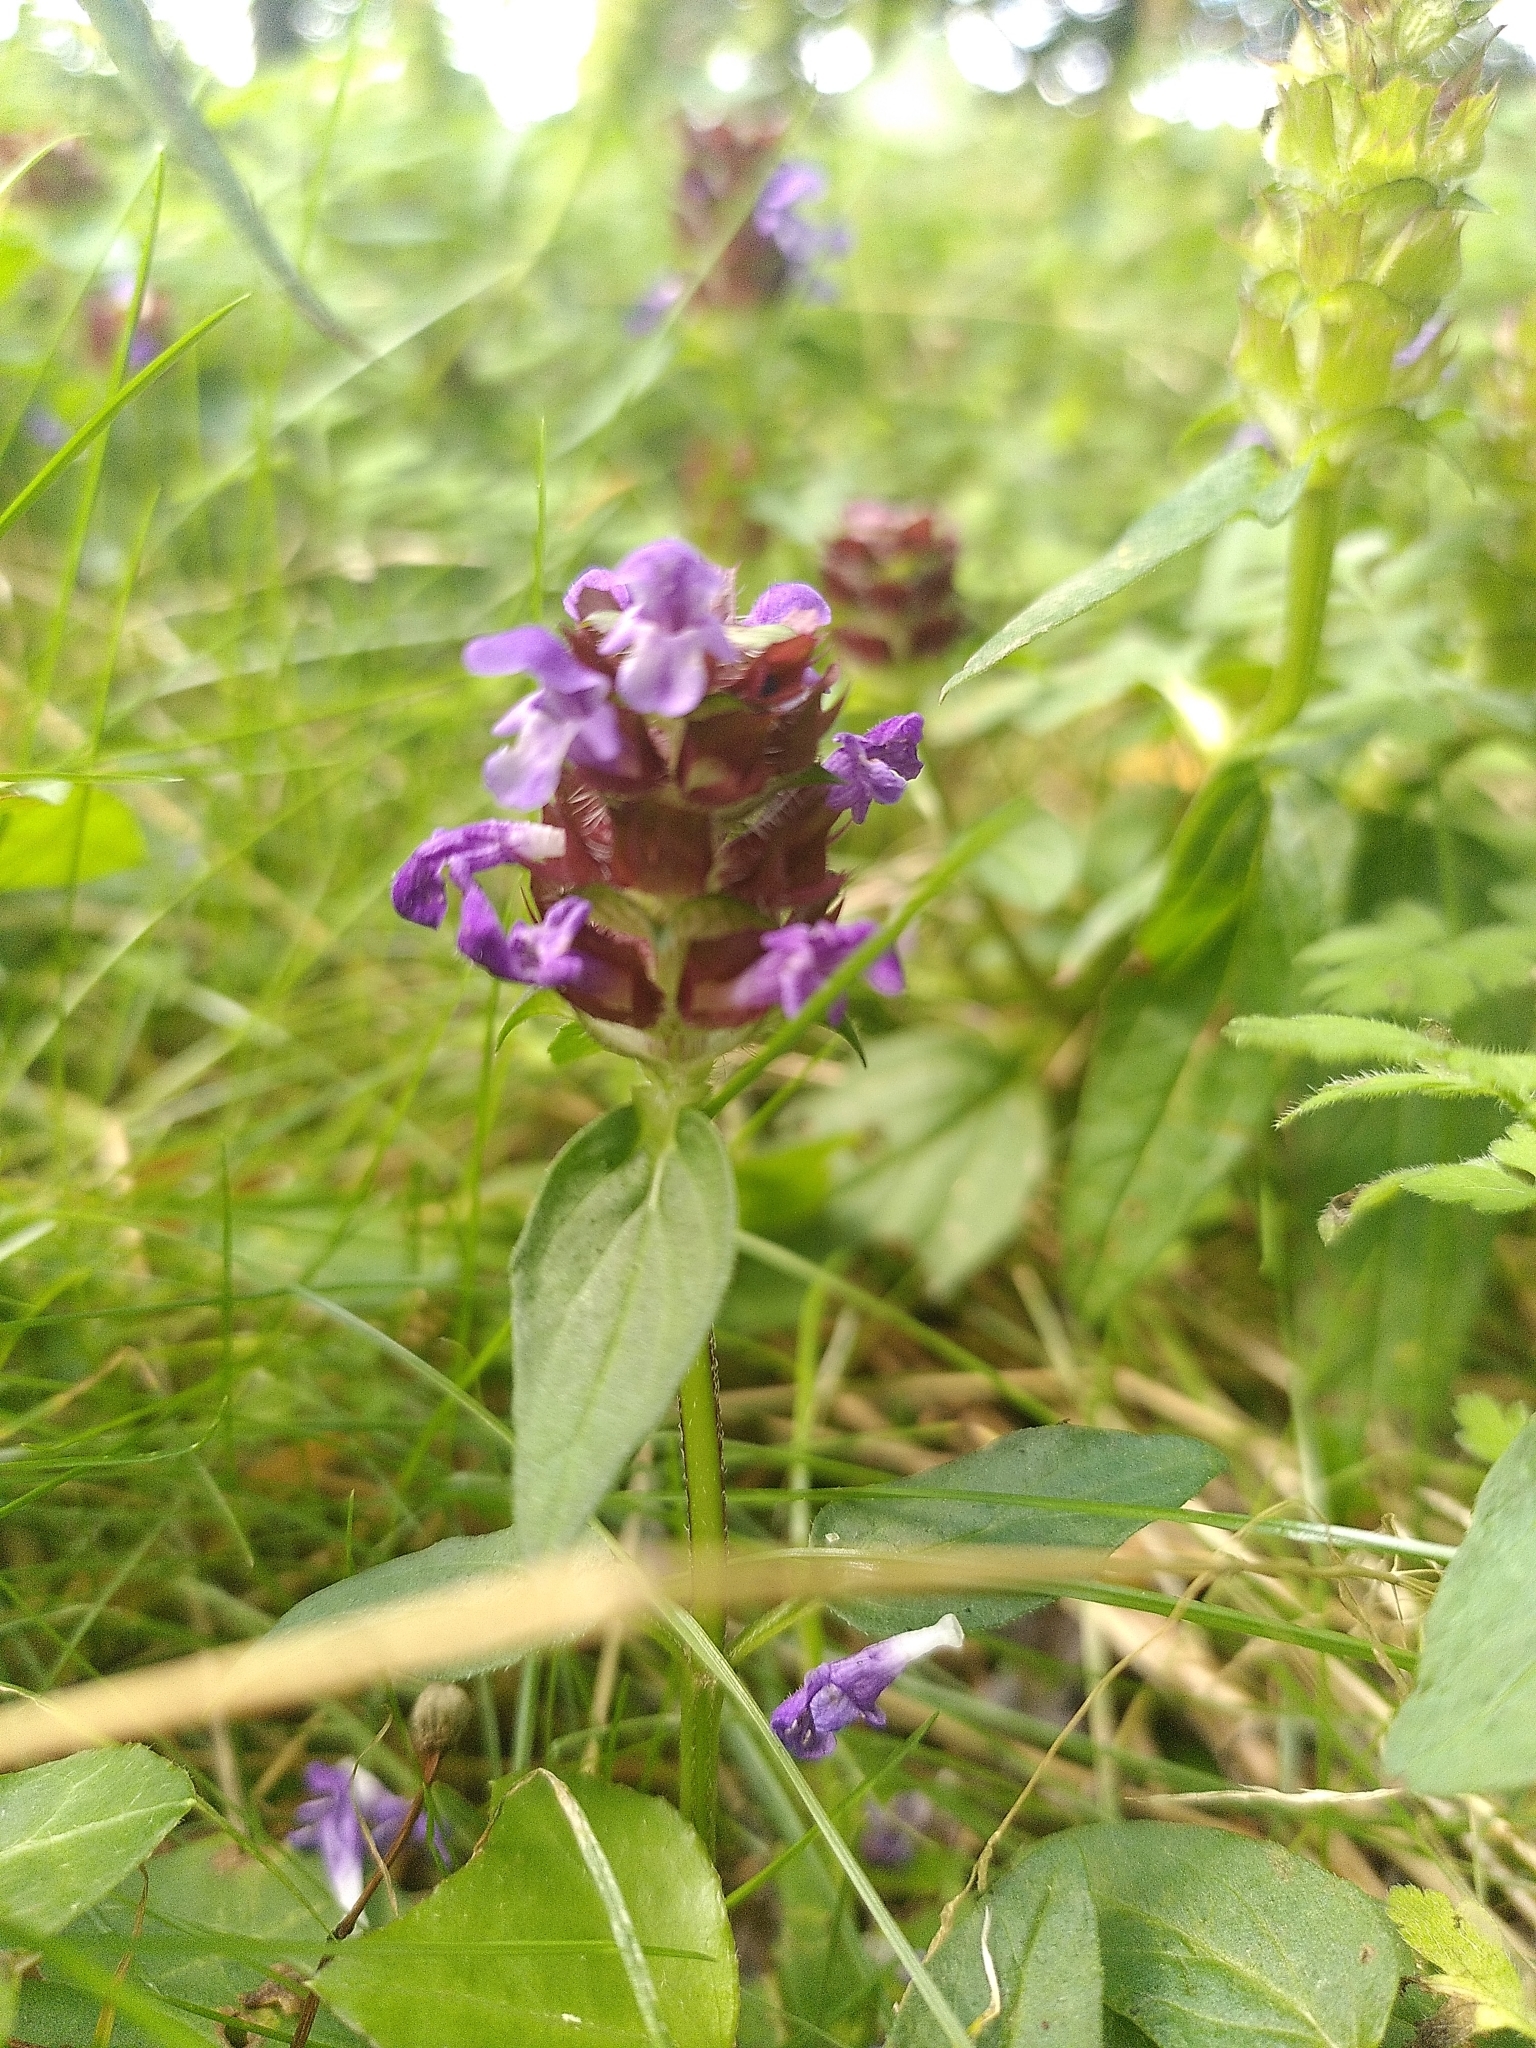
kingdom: Plantae
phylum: Tracheophyta
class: Magnoliopsida
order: Lamiales
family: Lamiaceae
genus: Prunella
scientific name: Prunella vulgaris
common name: Heal-all
